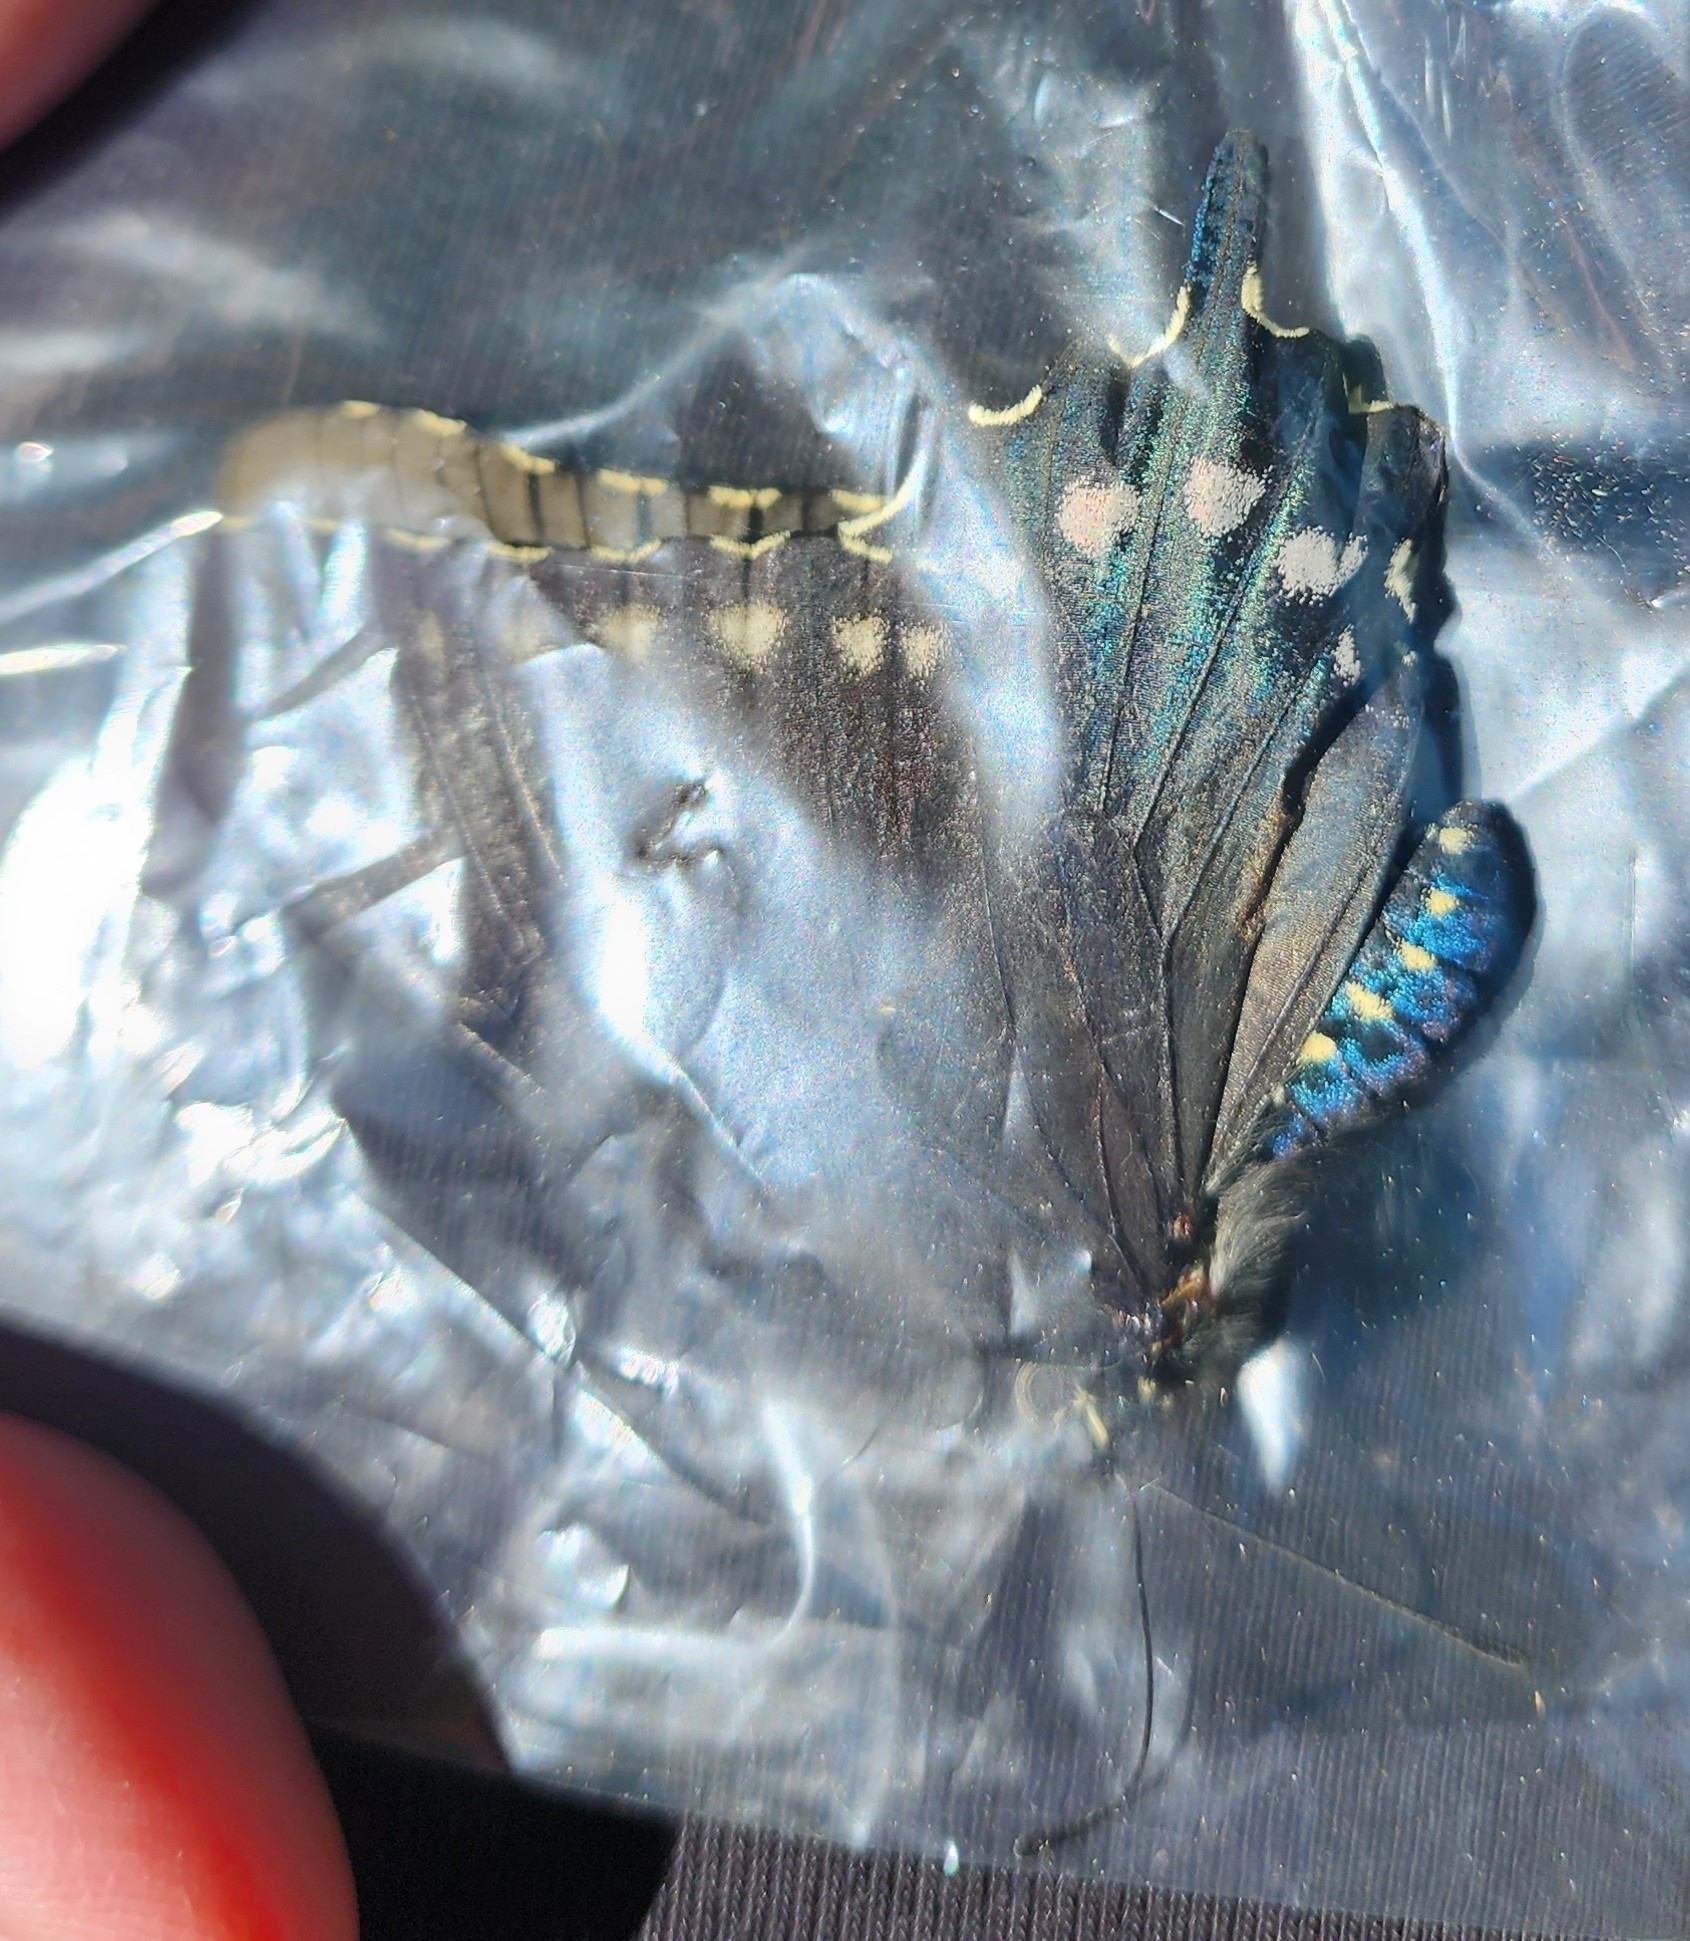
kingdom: Animalia
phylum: Arthropoda
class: Insecta
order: Lepidoptera
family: Papilionidae
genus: Battus
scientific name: Battus philenor
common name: Pipevine swallowtail
